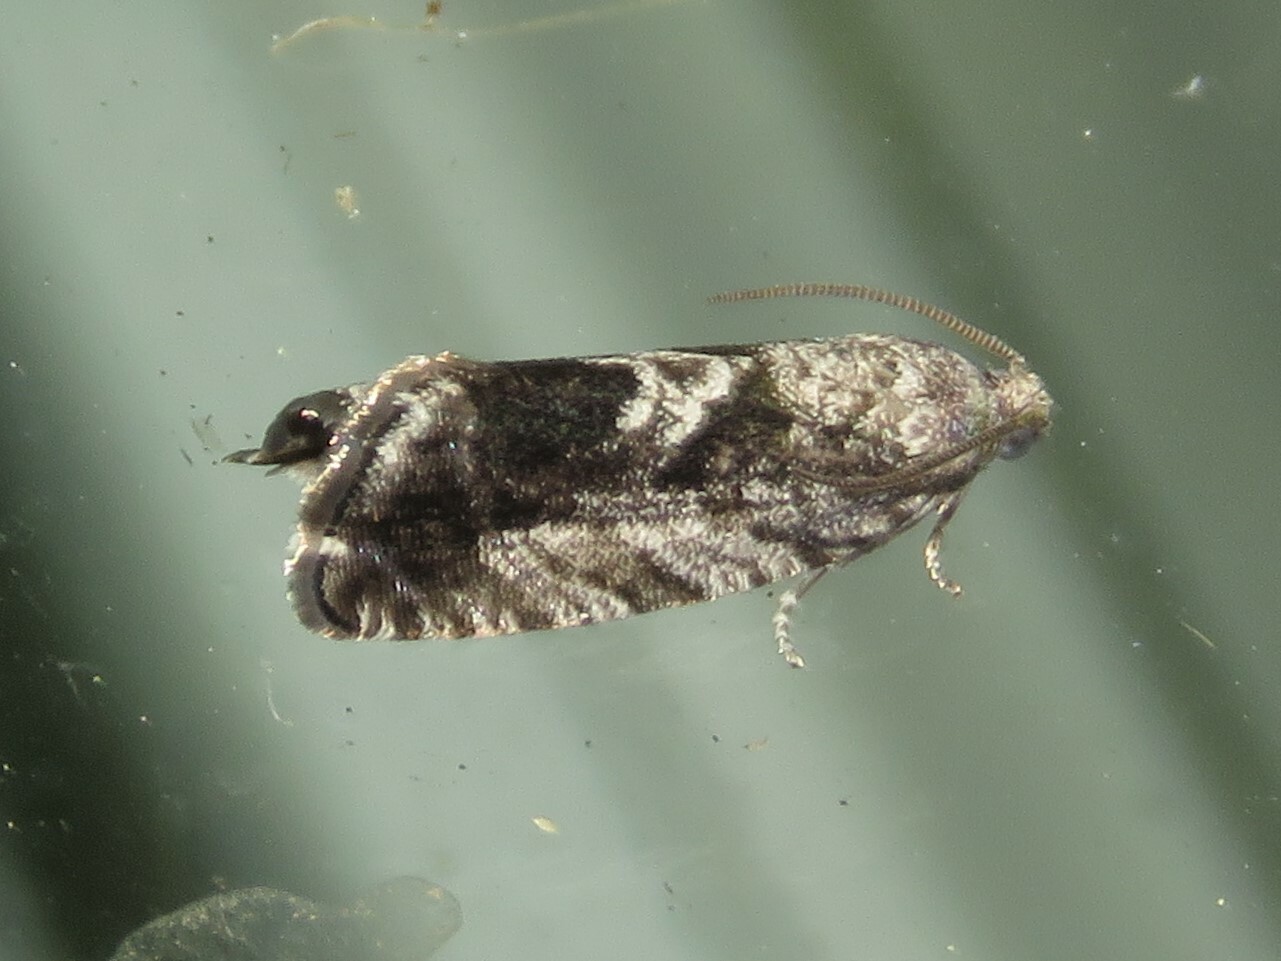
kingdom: Animalia
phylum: Arthropoda
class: Insecta
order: Lepidoptera
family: Tortricidae
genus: Cydia
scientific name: Cydia populana
